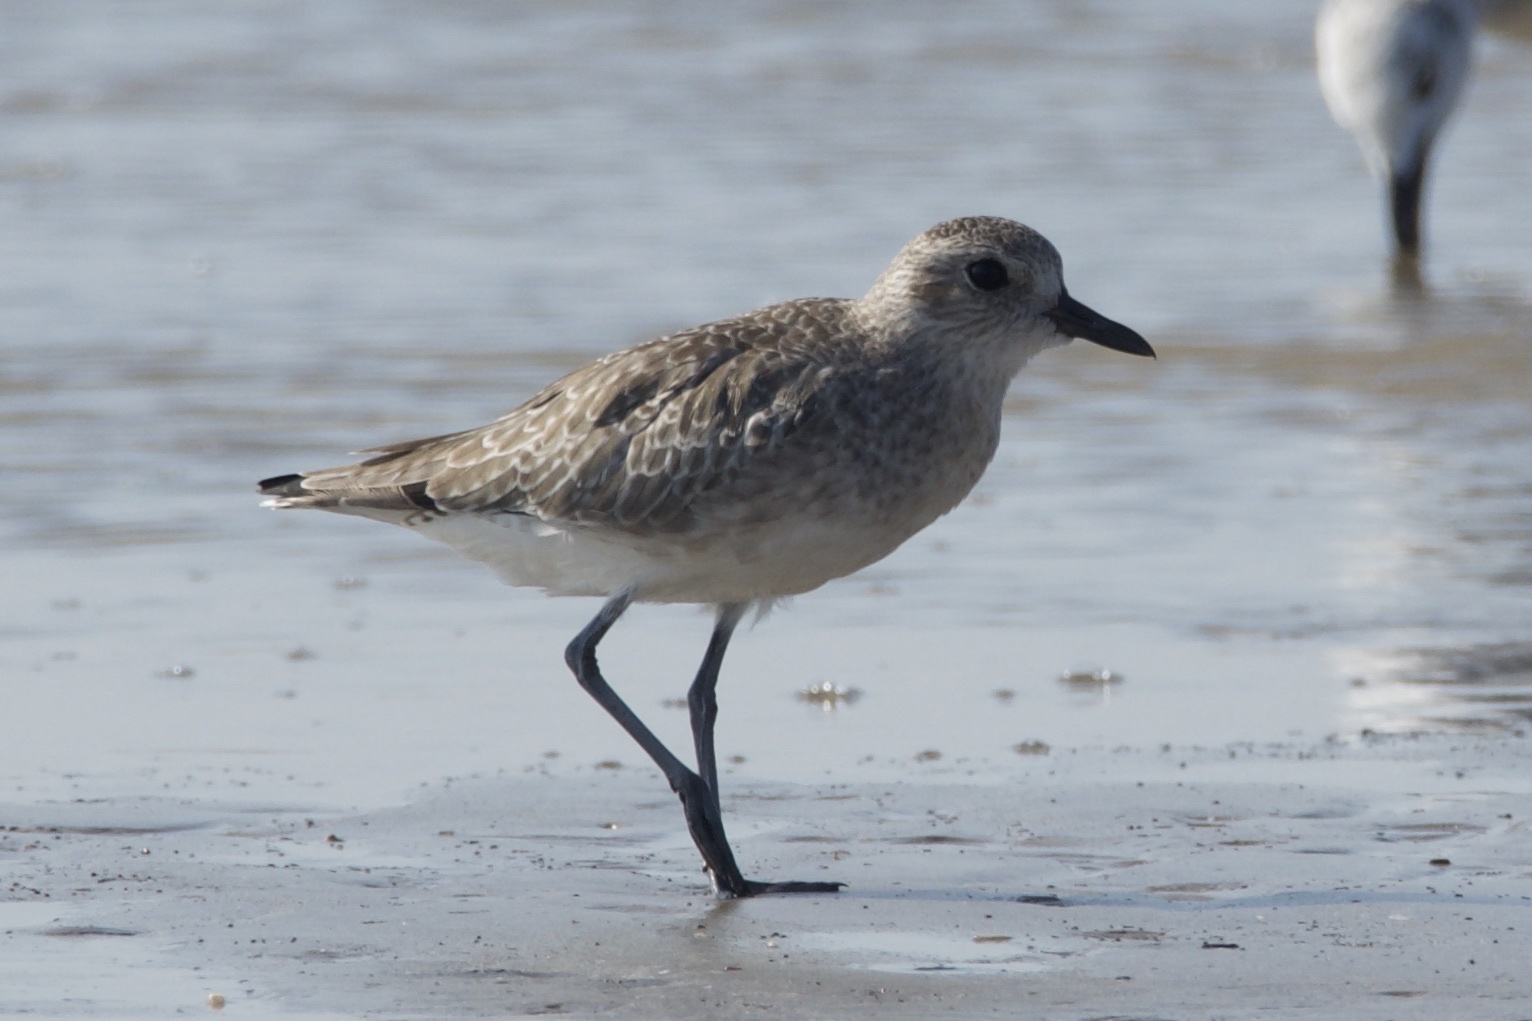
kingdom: Animalia
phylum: Chordata
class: Aves
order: Charadriiformes
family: Charadriidae
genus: Pluvialis
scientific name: Pluvialis squatarola
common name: Grey plover
